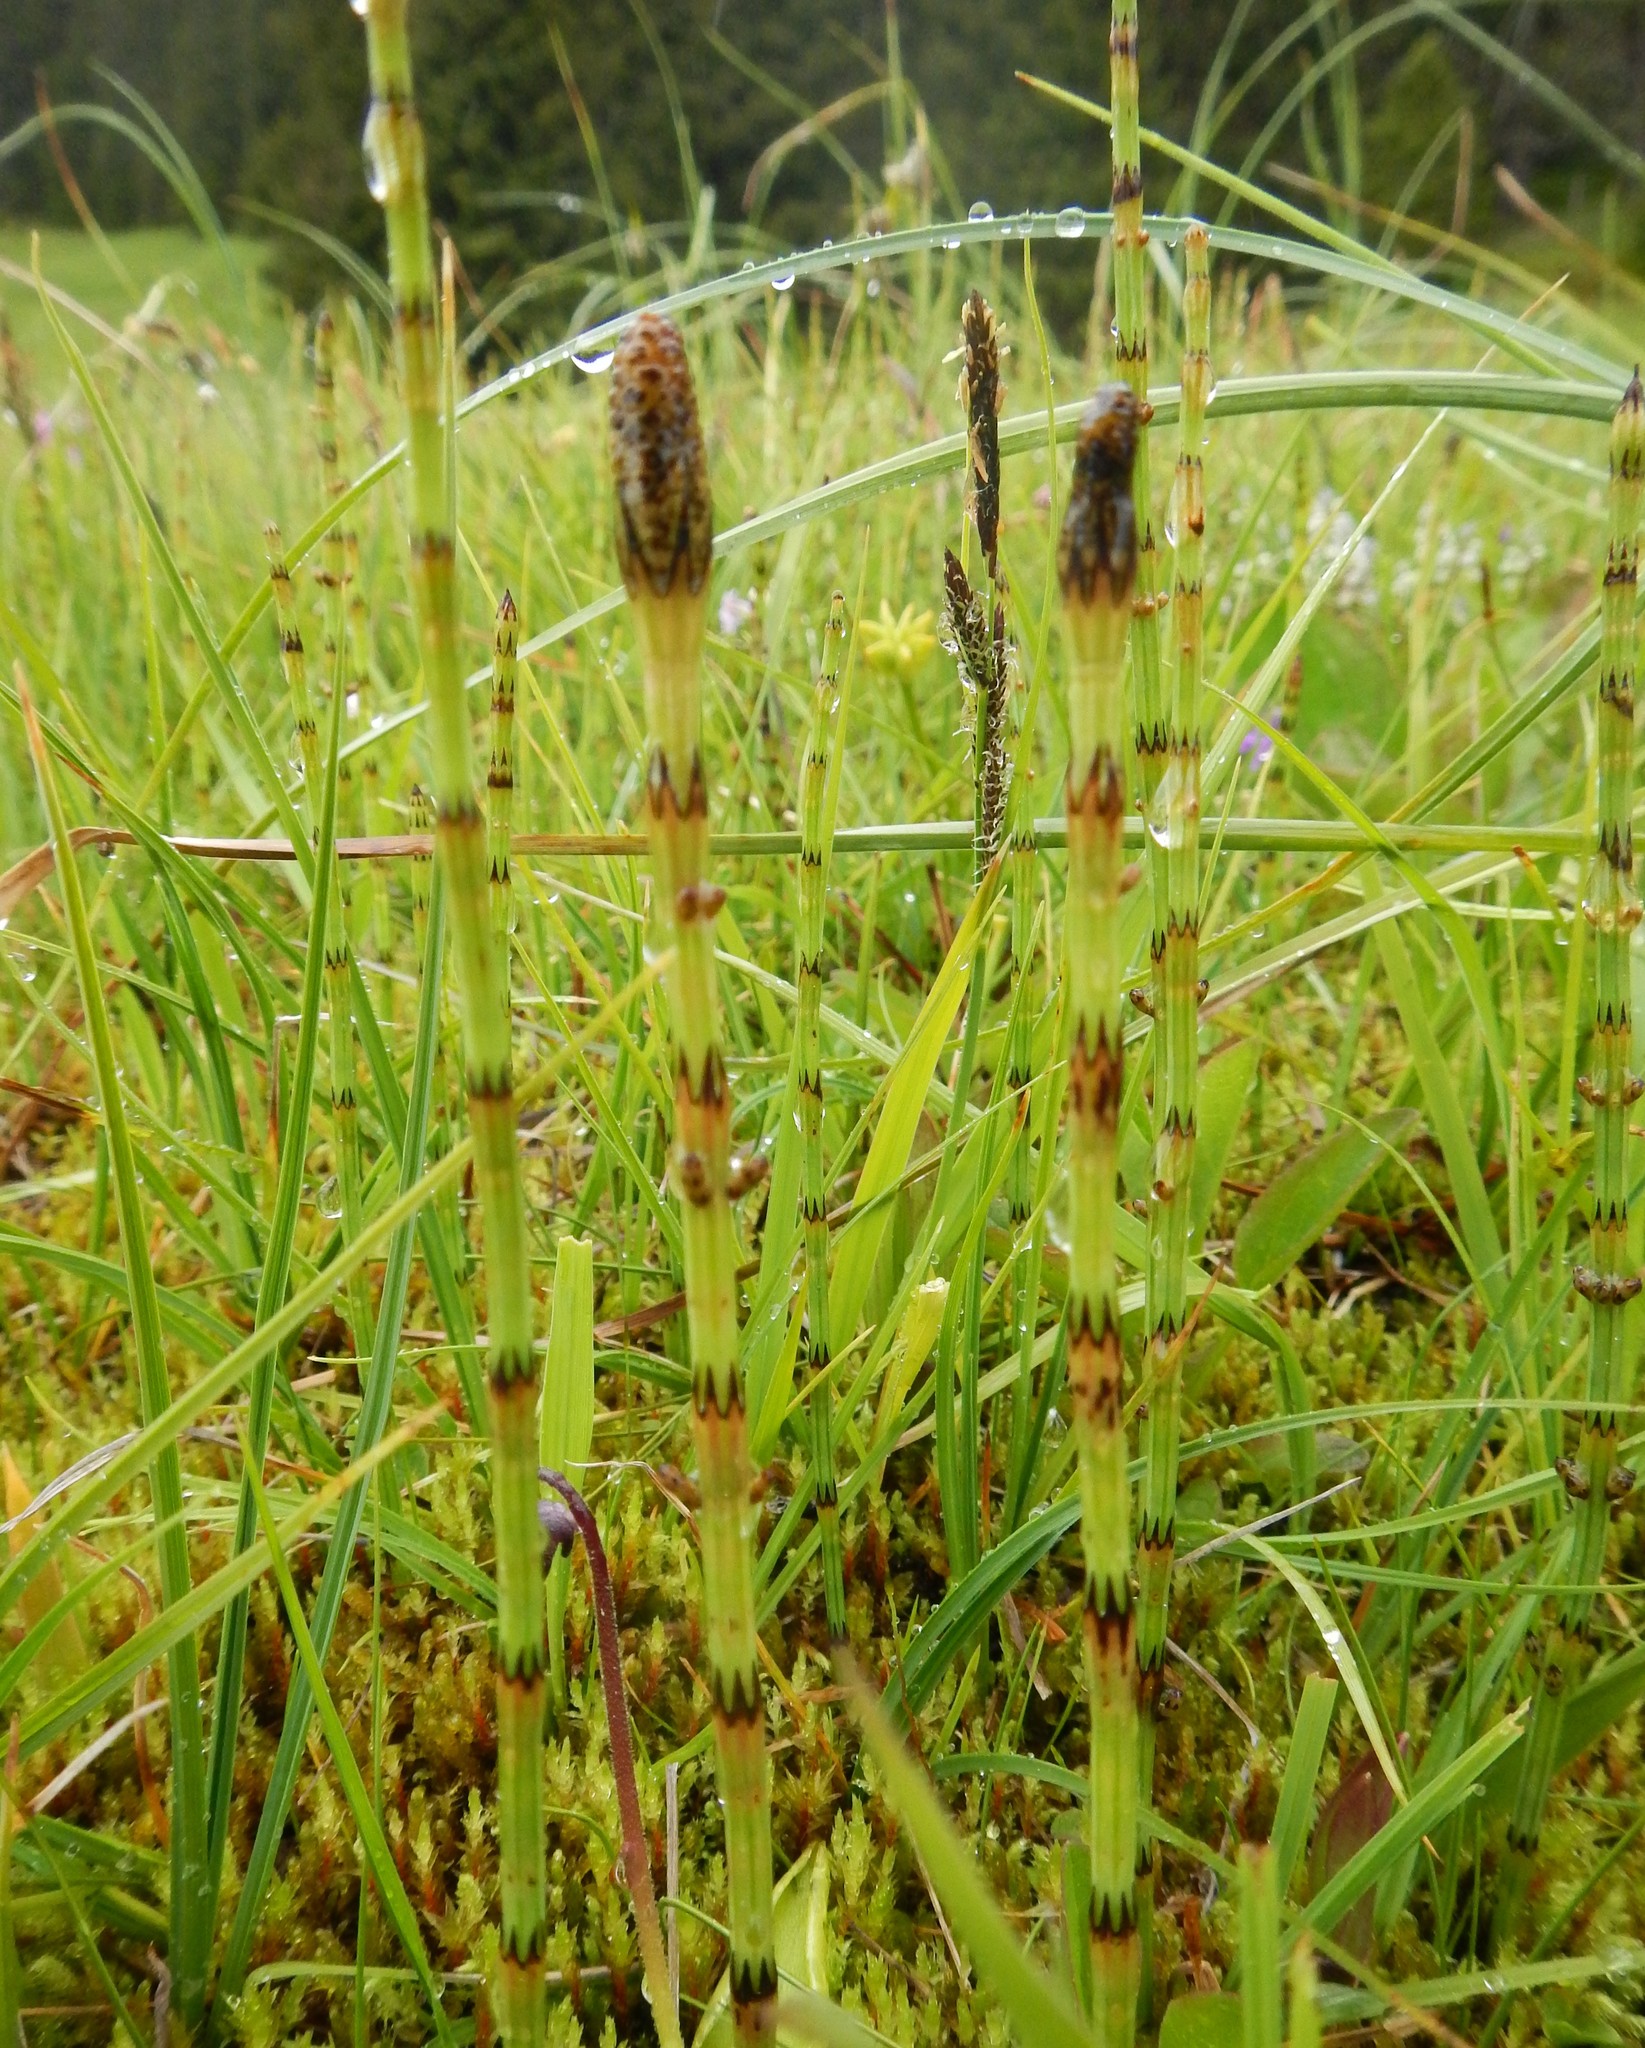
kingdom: Plantae
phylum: Tracheophyta
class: Polypodiopsida
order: Equisetales
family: Equisetaceae
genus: Equisetum
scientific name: Equisetum palustre
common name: Marsh horsetail
